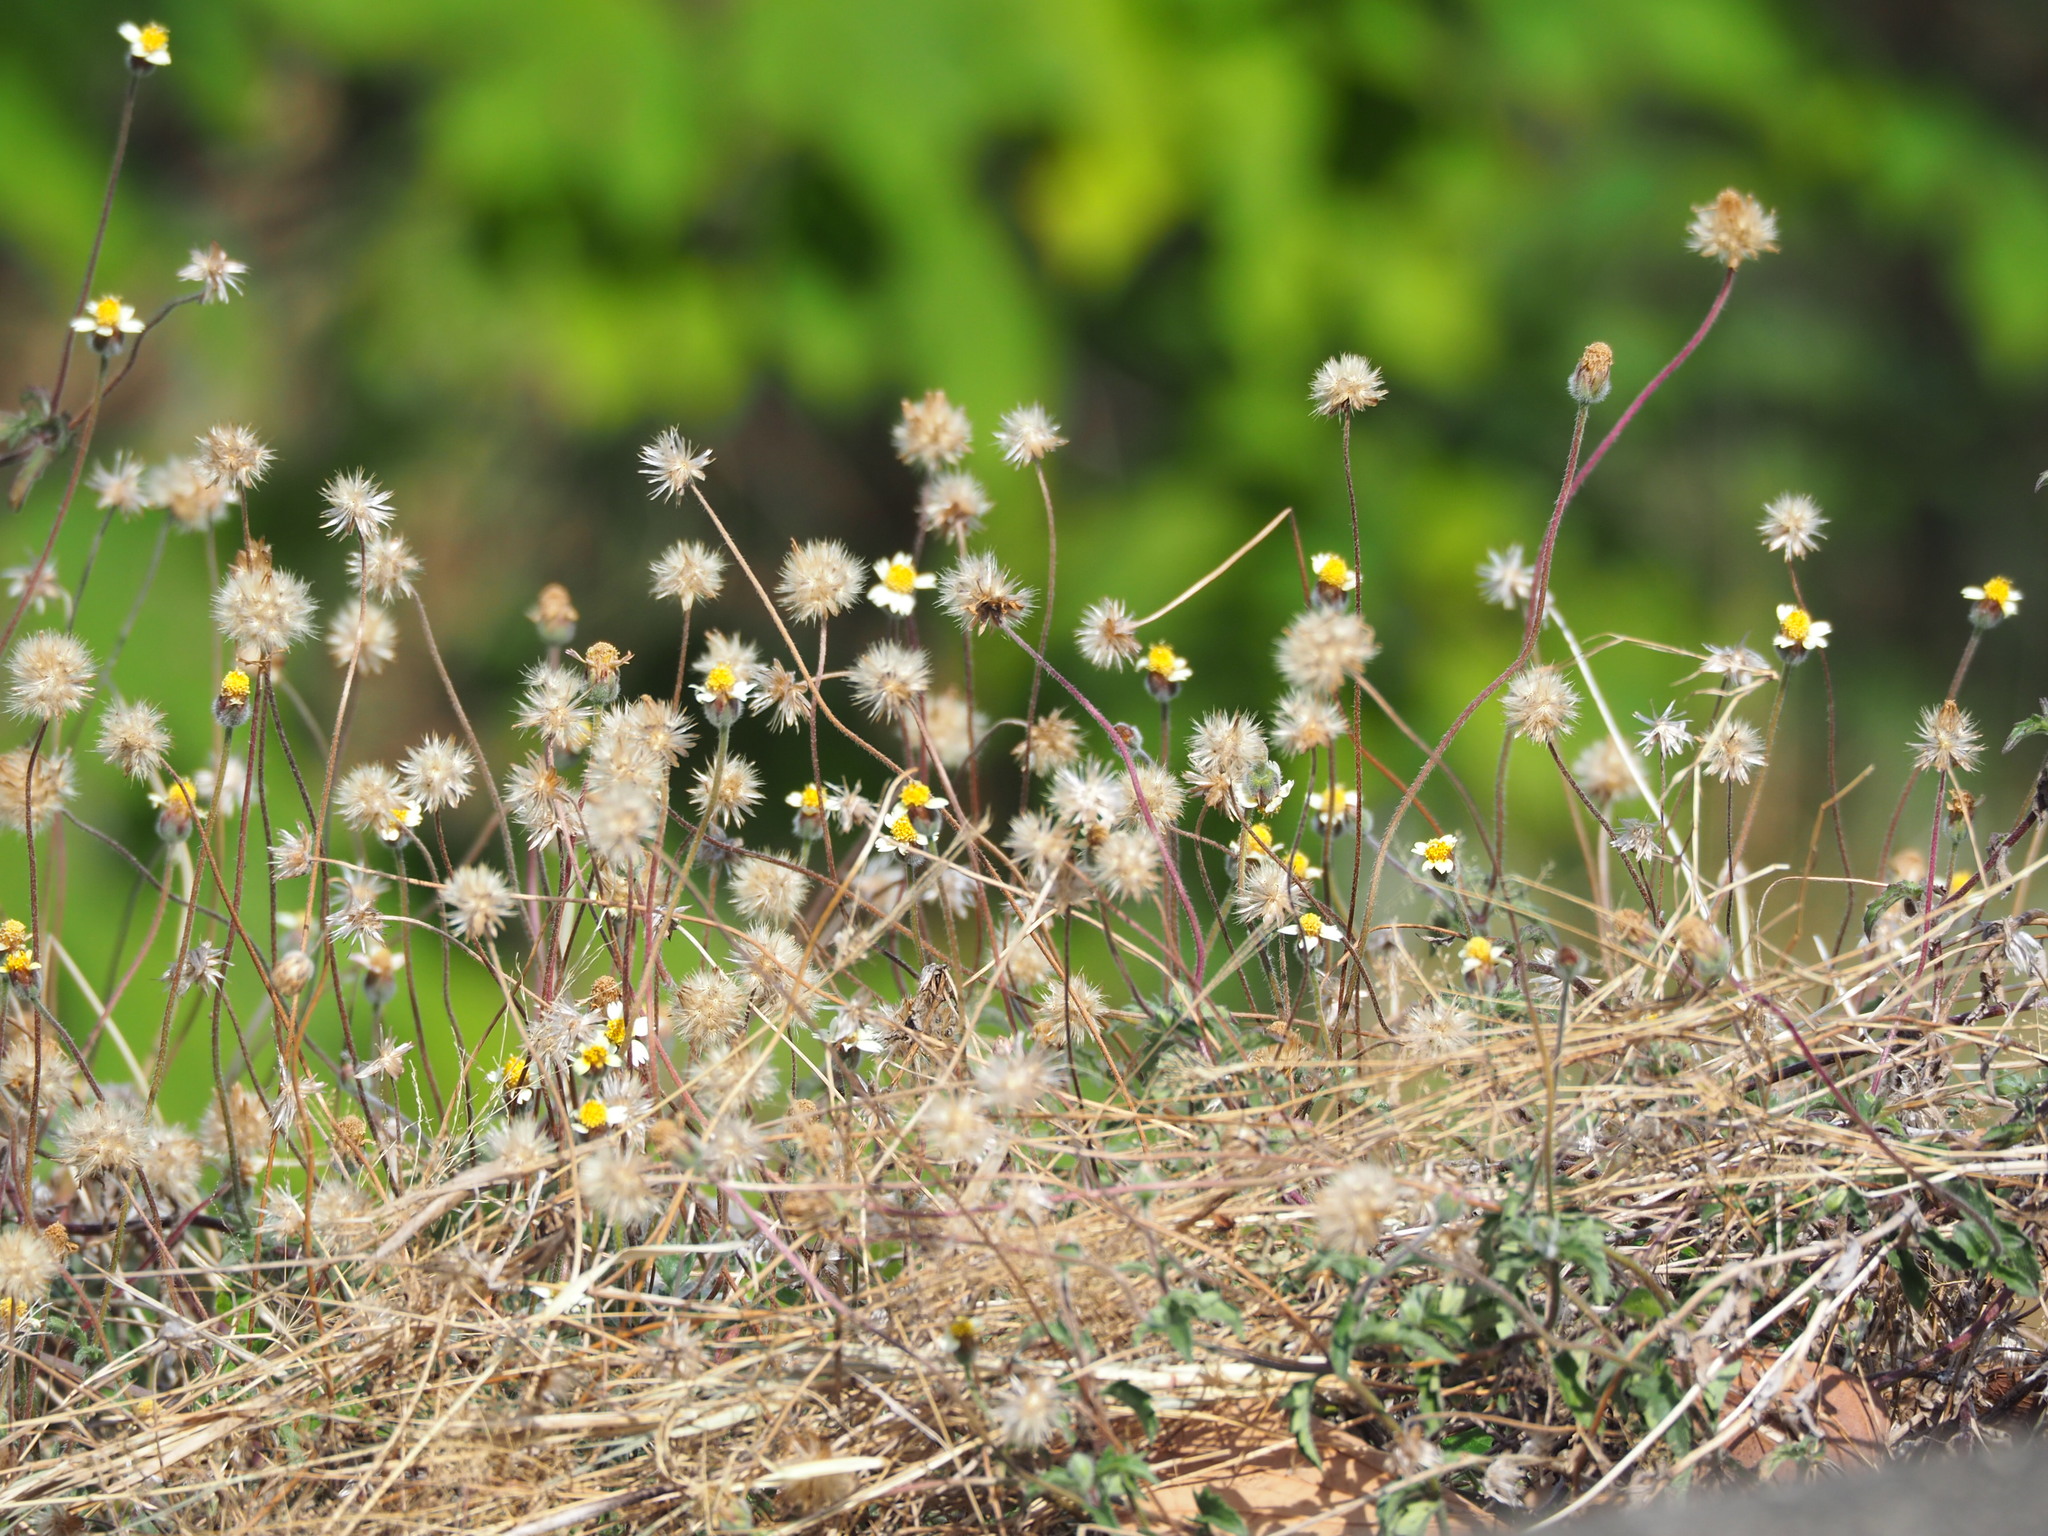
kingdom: Plantae
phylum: Tracheophyta
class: Magnoliopsida
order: Asterales
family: Asteraceae
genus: Tridax
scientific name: Tridax procumbens
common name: Coatbuttons
